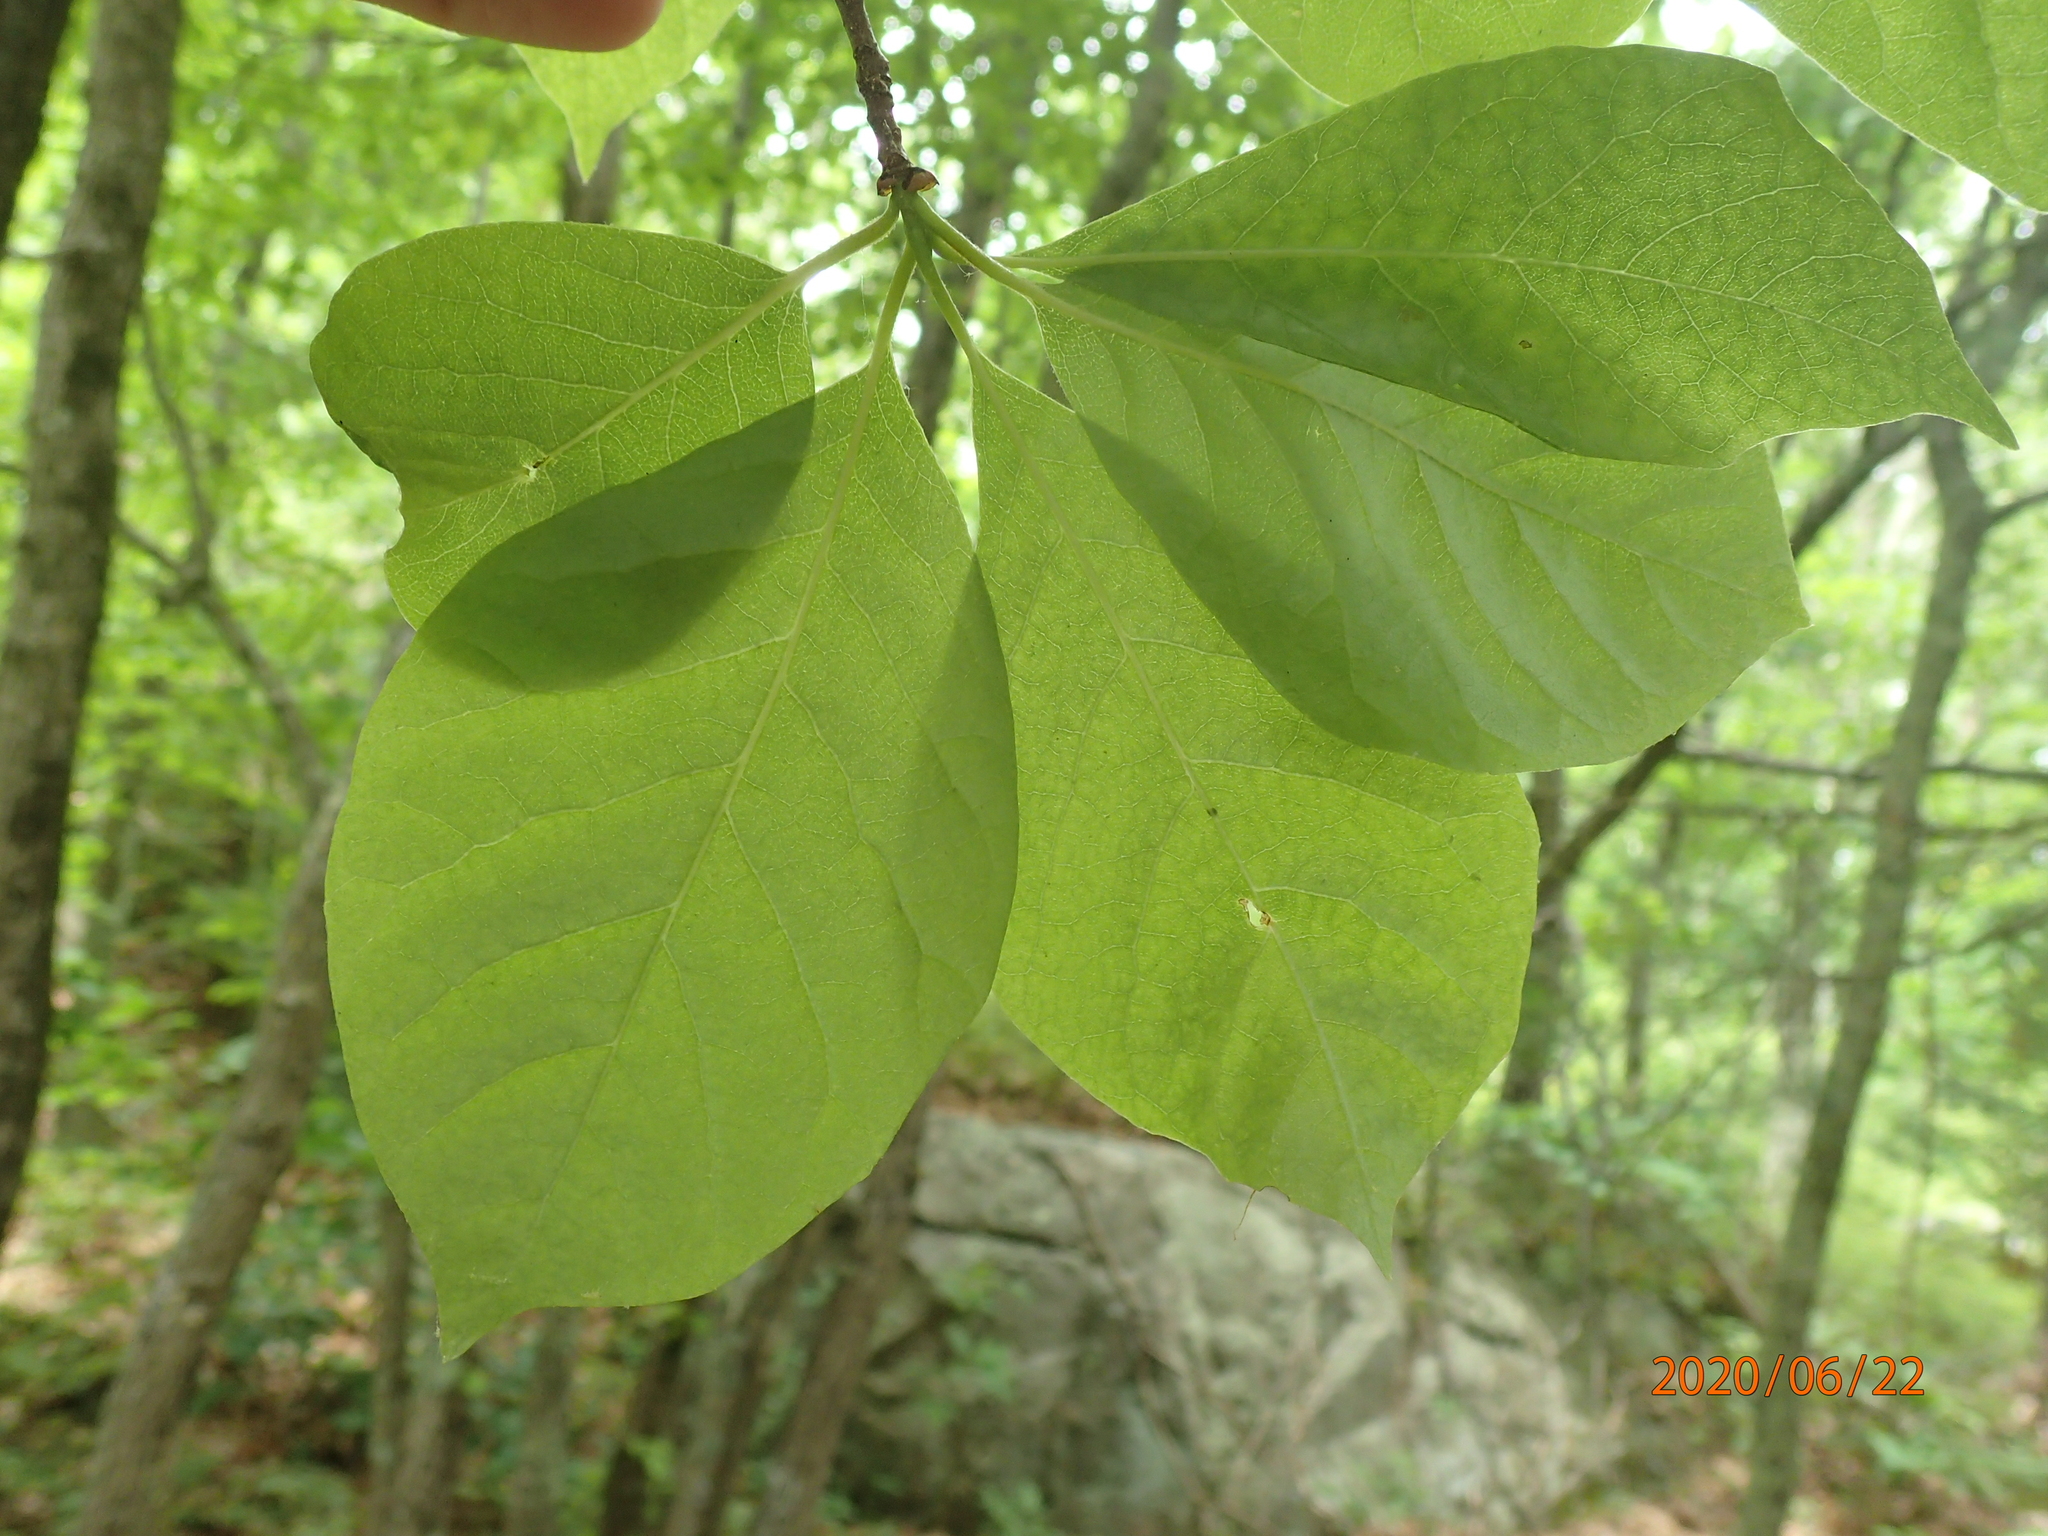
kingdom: Plantae
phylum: Tracheophyta
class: Magnoliopsida
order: Cornales
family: Nyssaceae
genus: Nyssa
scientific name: Nyssa sylvatica
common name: Black tupelo
